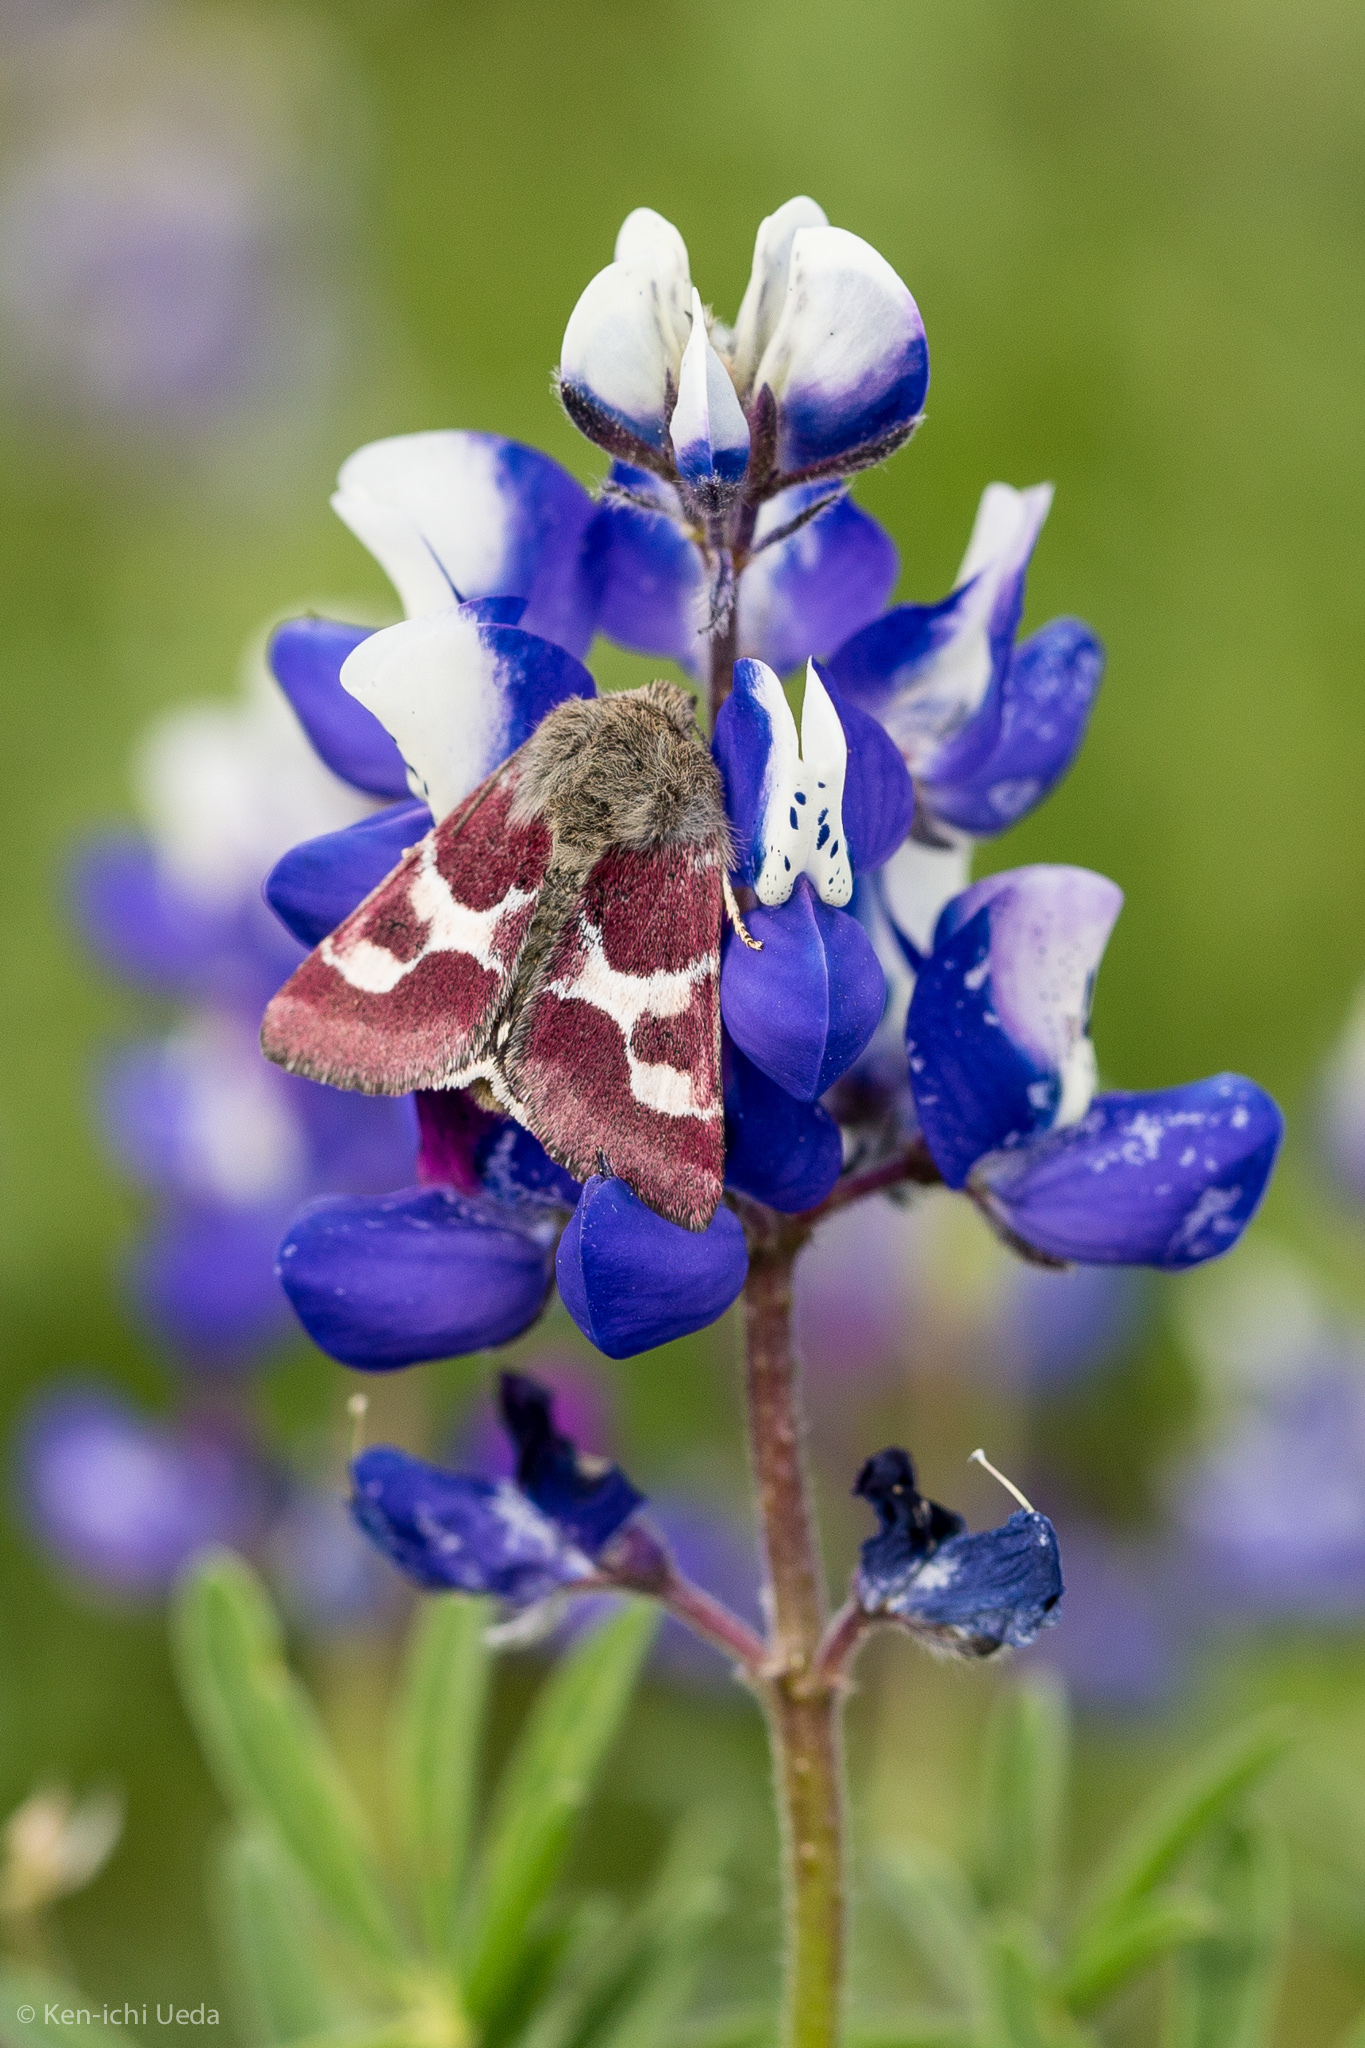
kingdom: Animalia
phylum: Arthropoda
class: Insecta
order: Lepidoptera
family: Noctuidae
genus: Schinia
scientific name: Schinia suetus
